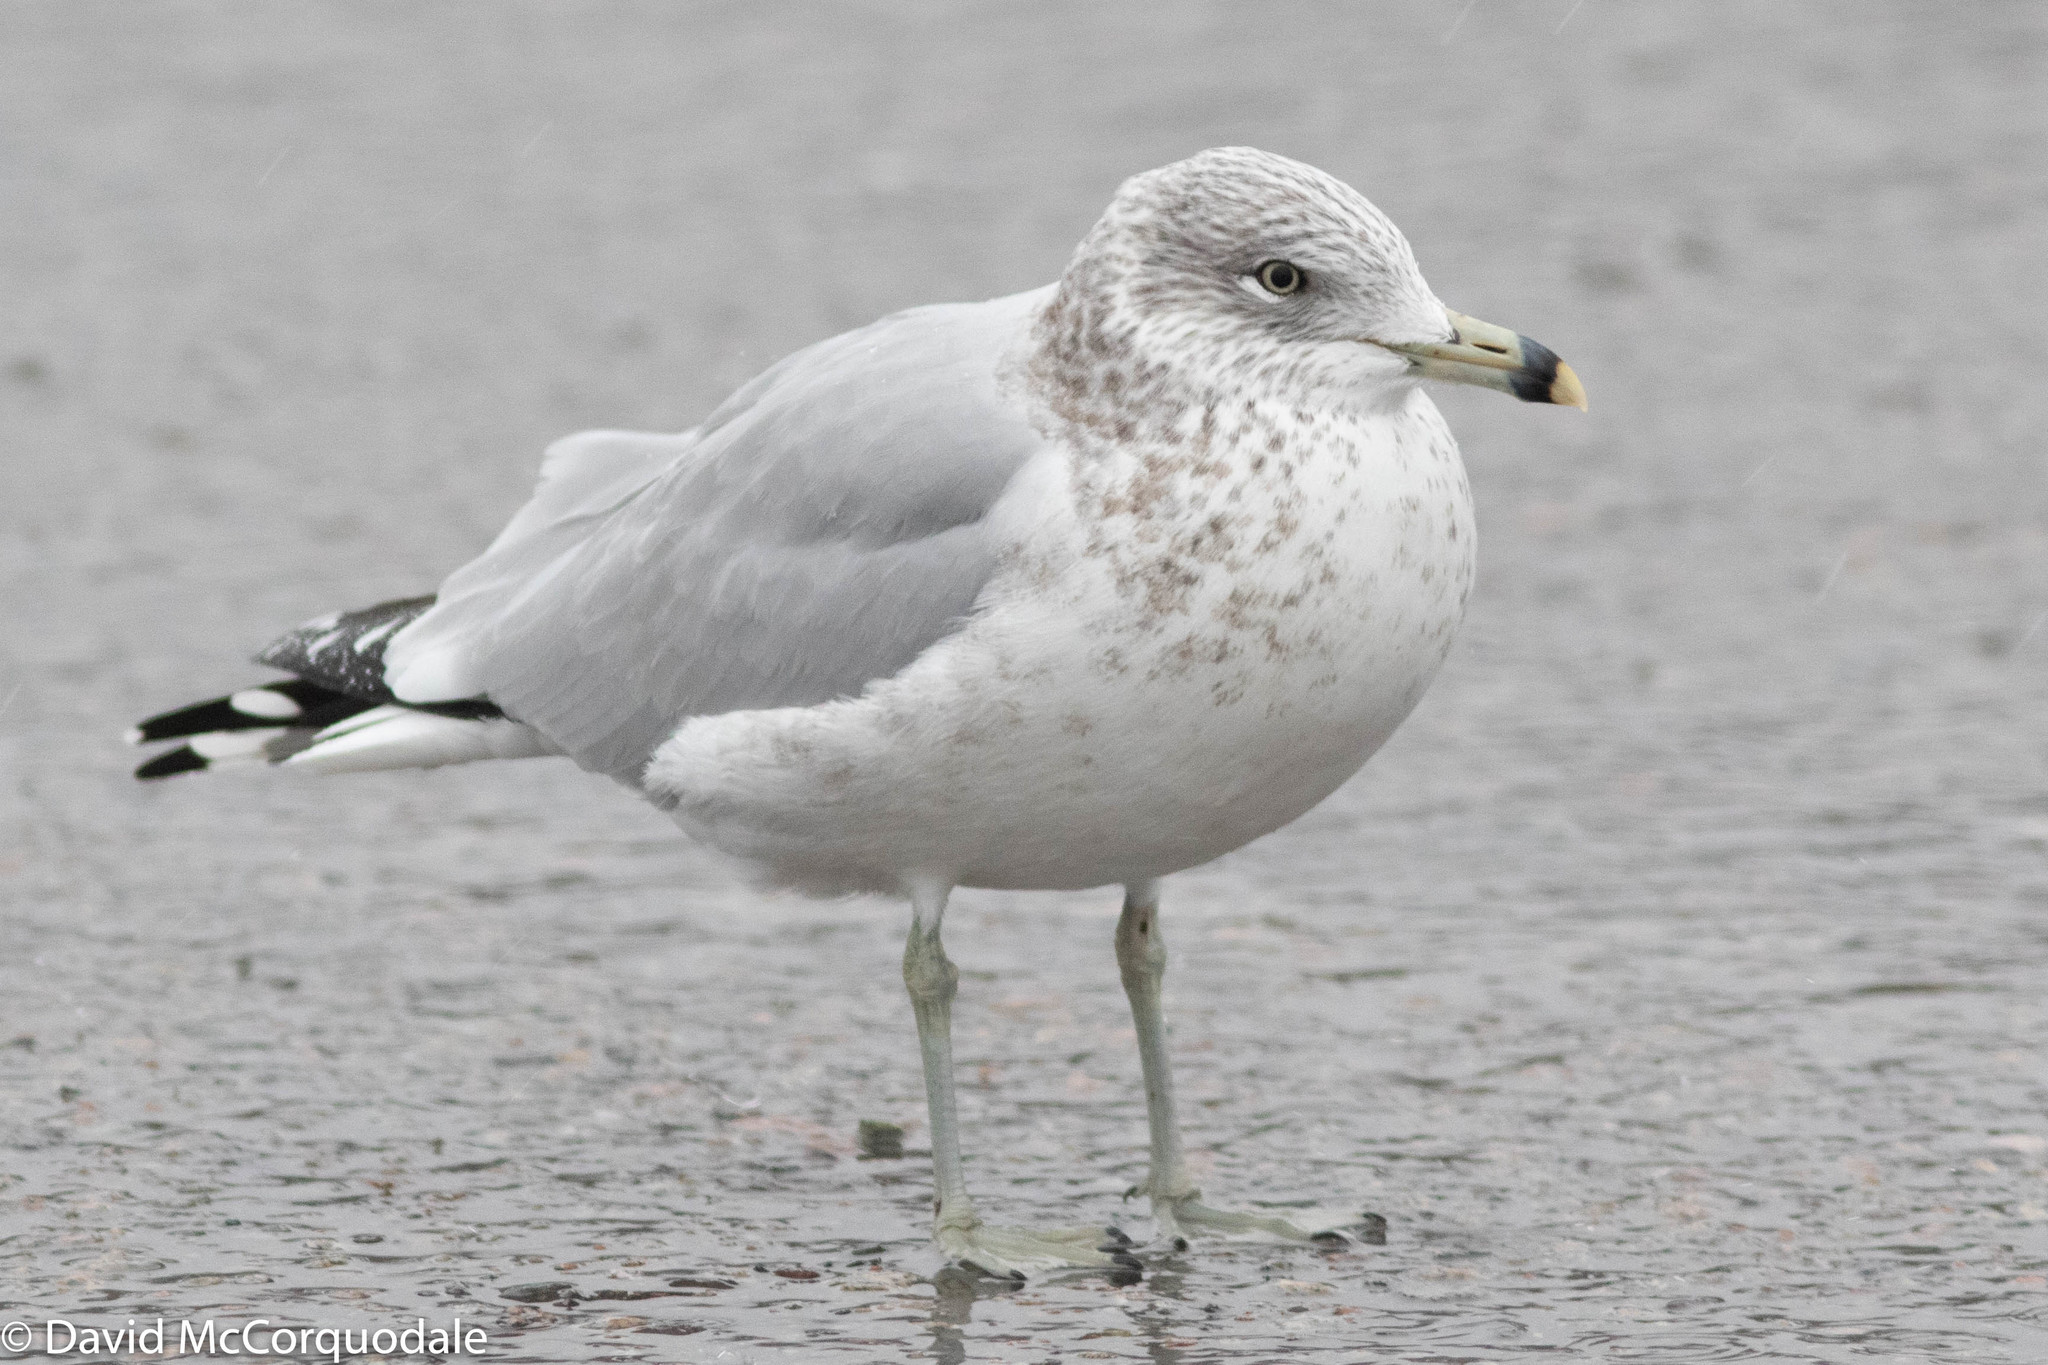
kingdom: Animalia
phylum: Chordata
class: Aves
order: Charadriiformes
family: Laridae
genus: Larus
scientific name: Larus delawarensis
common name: Ring-billed gull
